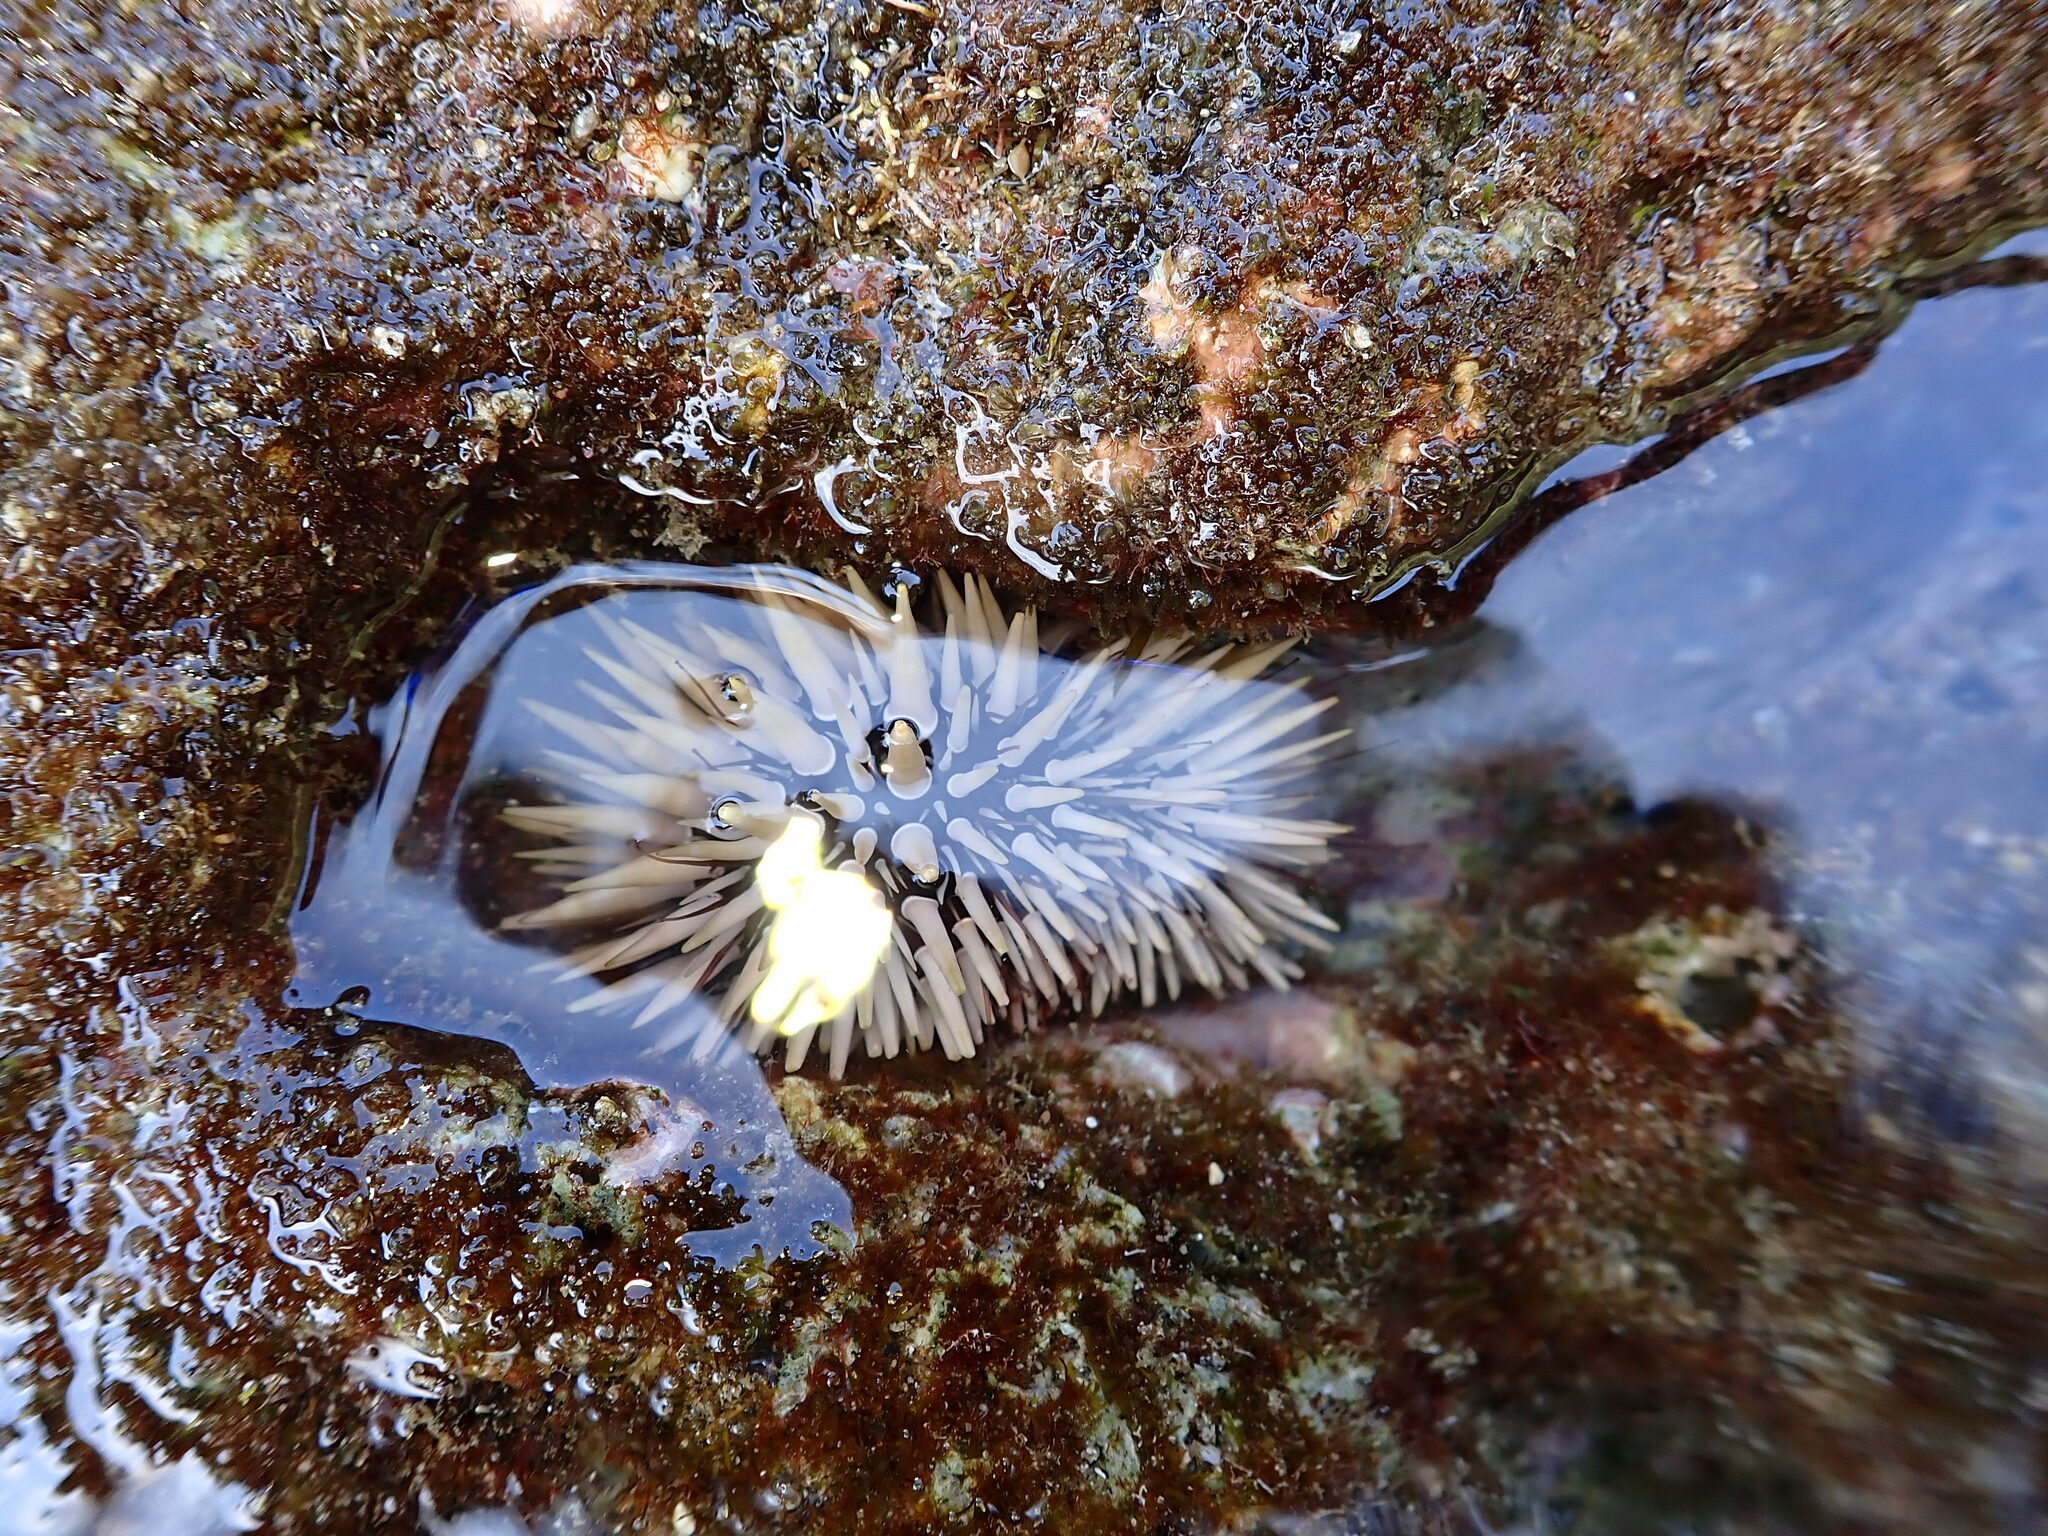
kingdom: Animalia
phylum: Echinodermata
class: Echinoidea
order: Camarodonta
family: Echinometridae
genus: Echinometra
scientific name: Echinometra mathaei
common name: Rock-boring urchin
